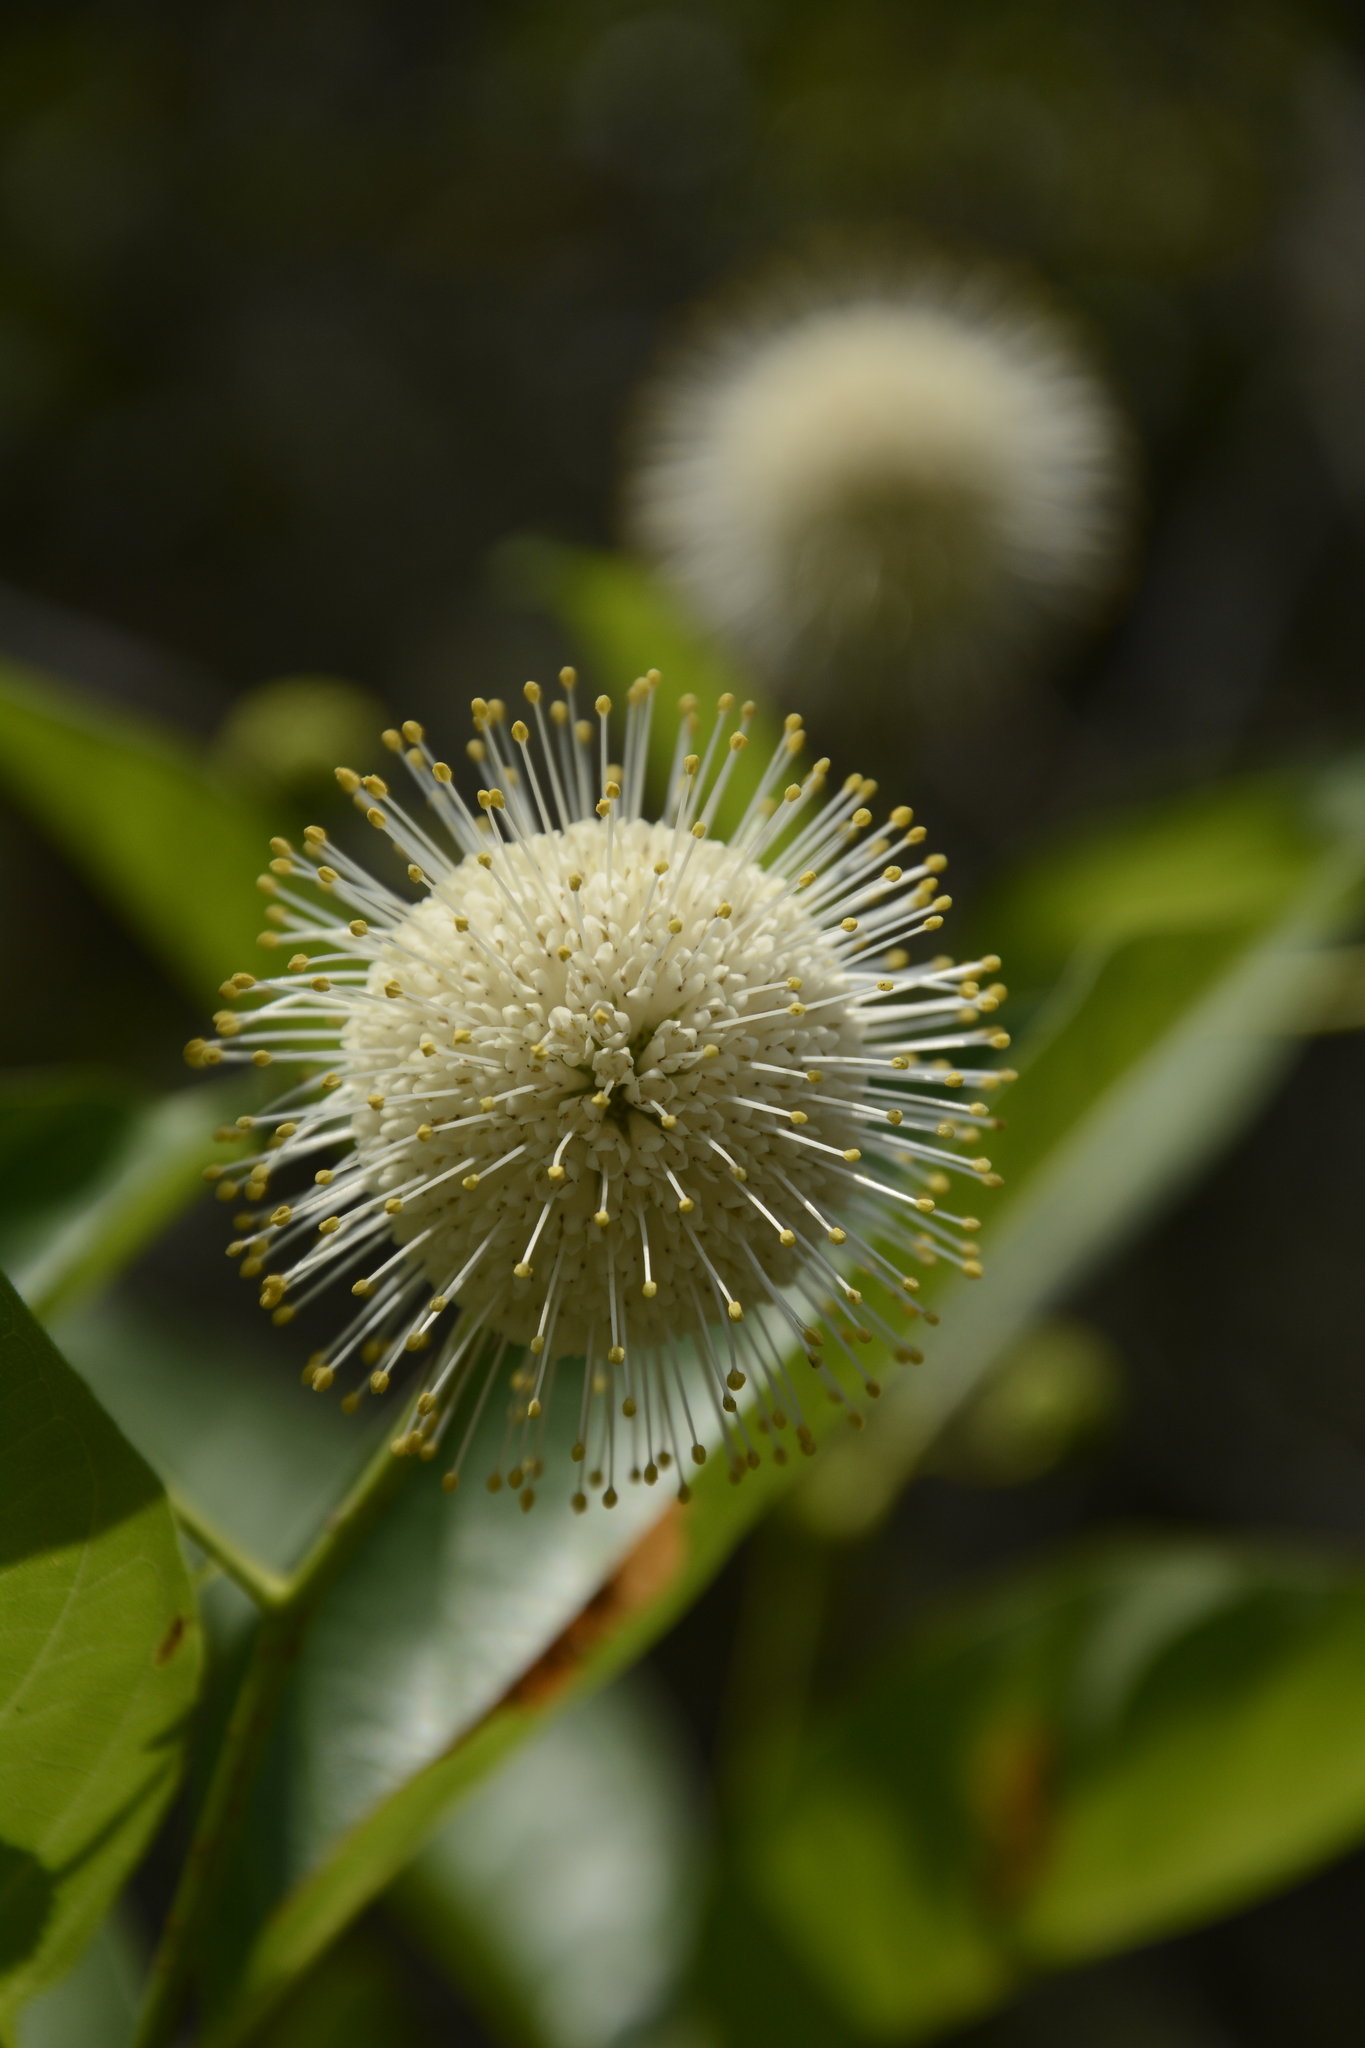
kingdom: Plantae
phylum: Tracheophyta
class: Magnoliopsida
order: Gentianales
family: Rubiaceae
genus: Cephalanthus
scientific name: Cephalanthus occidentalis
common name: Button-willow
